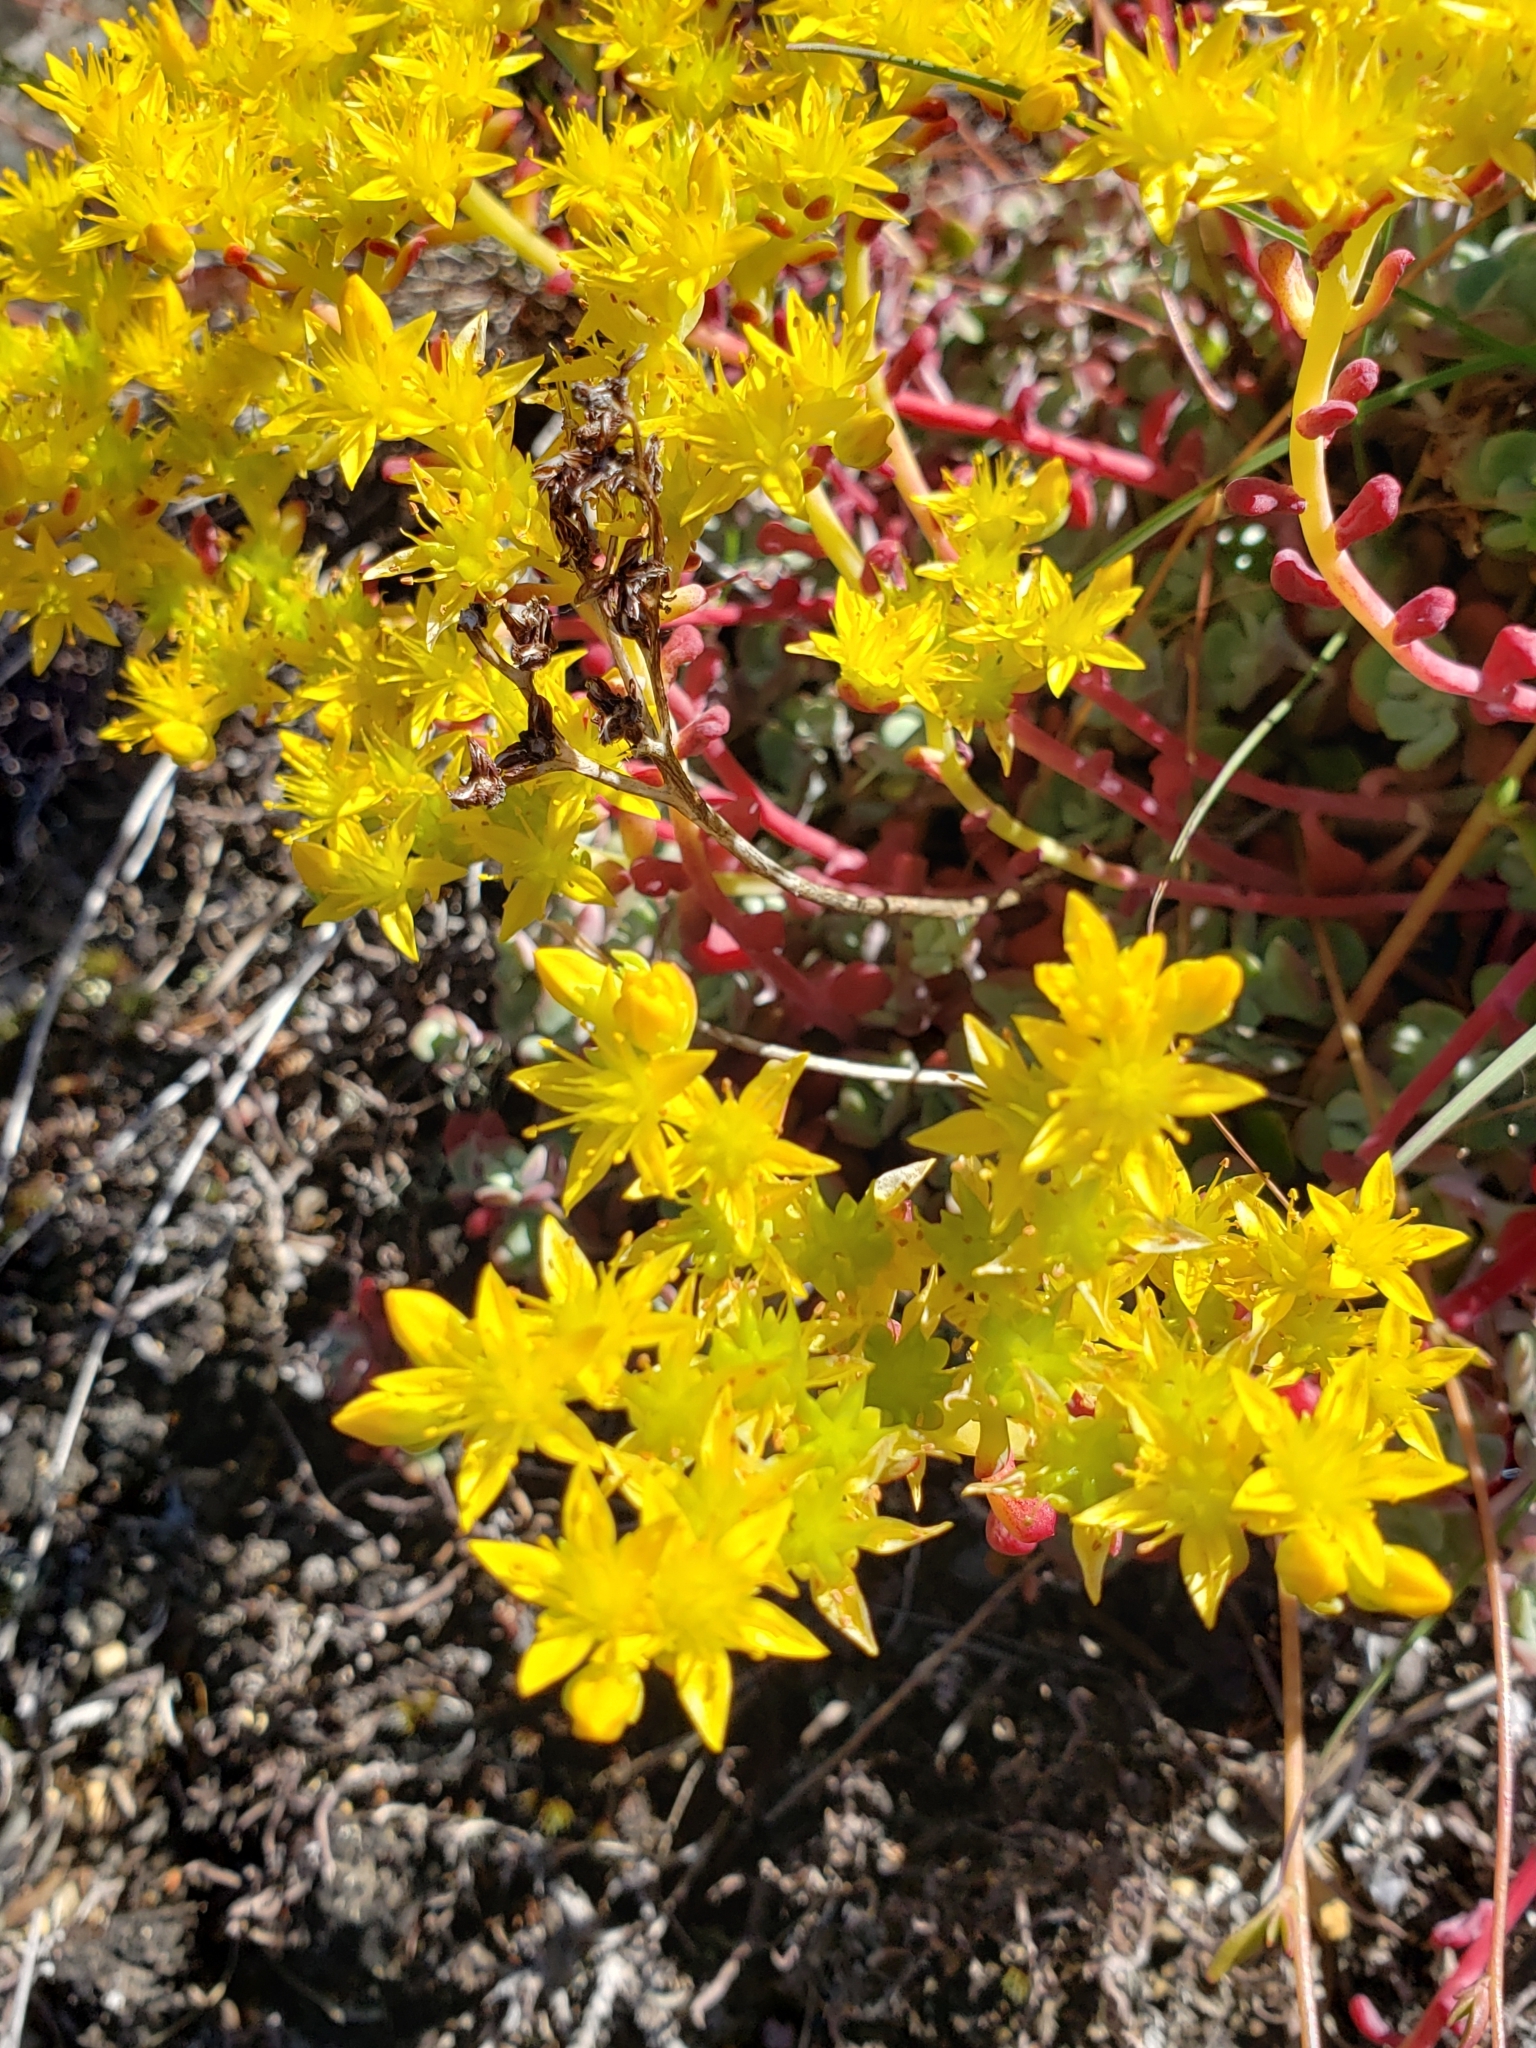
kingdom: Plantae
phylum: Tracheophyta
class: Magnoliopsida
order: Saxifragales
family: Crassulaceae
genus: Sedum
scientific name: Sedum spathulifolium
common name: Colorado stonecrop
